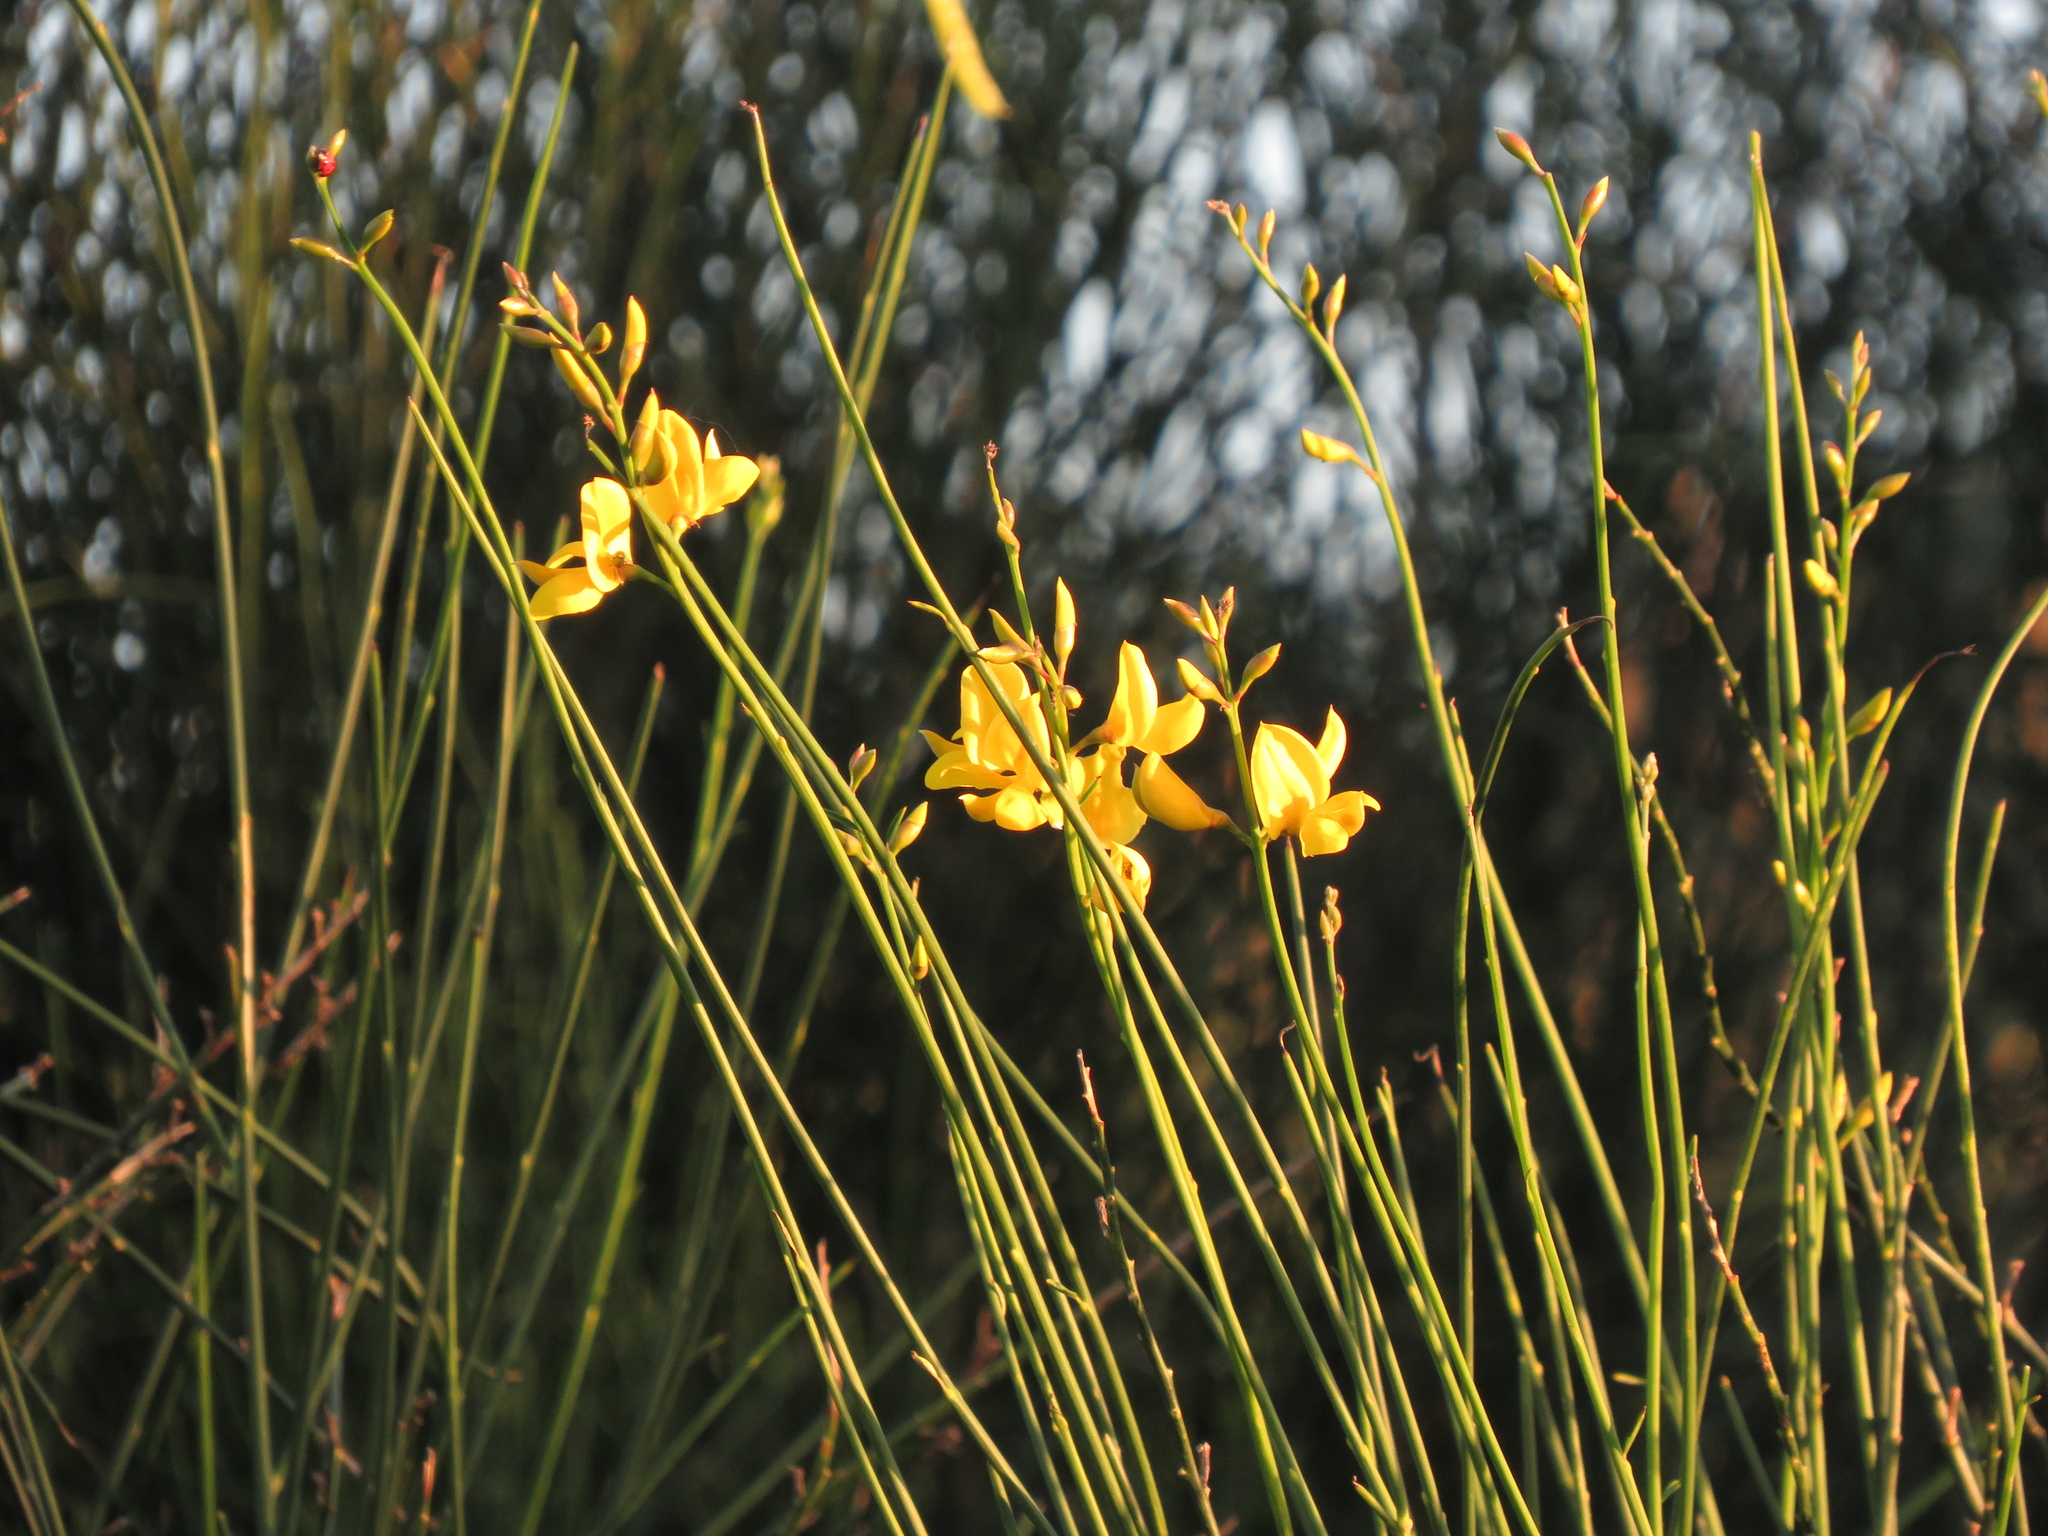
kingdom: Plantae
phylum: Tracheophyta
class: Magnoliopsida
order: Fabales
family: Fabaceae
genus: Spartium
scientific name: Spartium junceum
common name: Spanish broom
